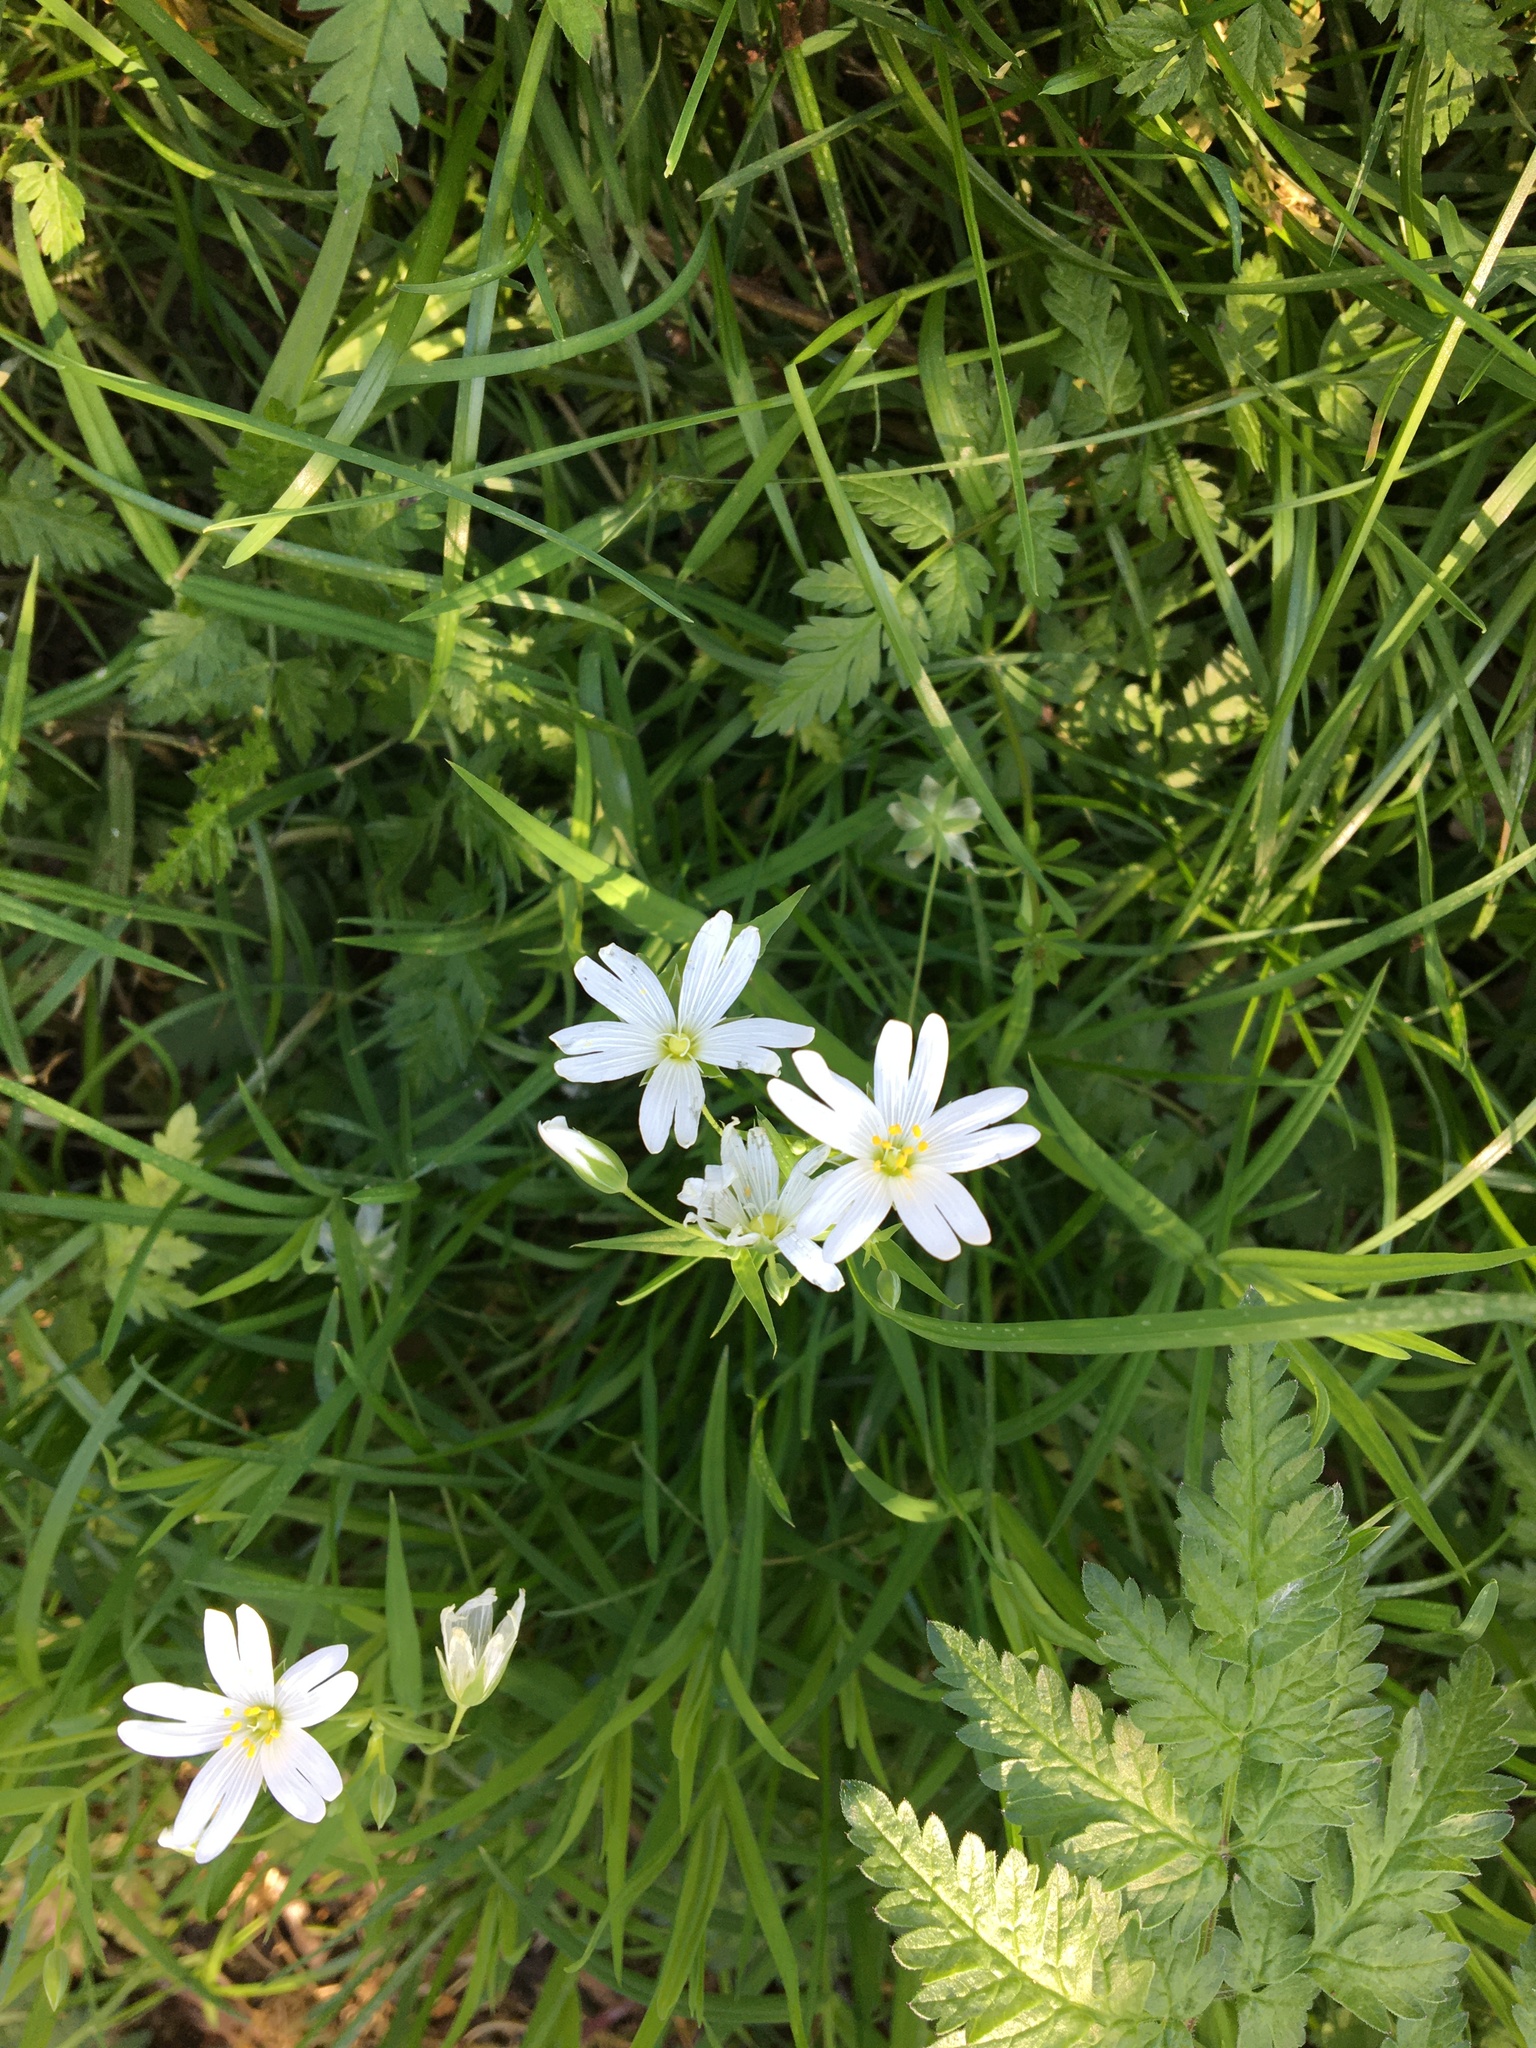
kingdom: Plantae
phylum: Tracheophyta
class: Magnoliopsida
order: Caryophyllales
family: Caryophyllaceae
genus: Rabelera
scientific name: Rabelera holostea
